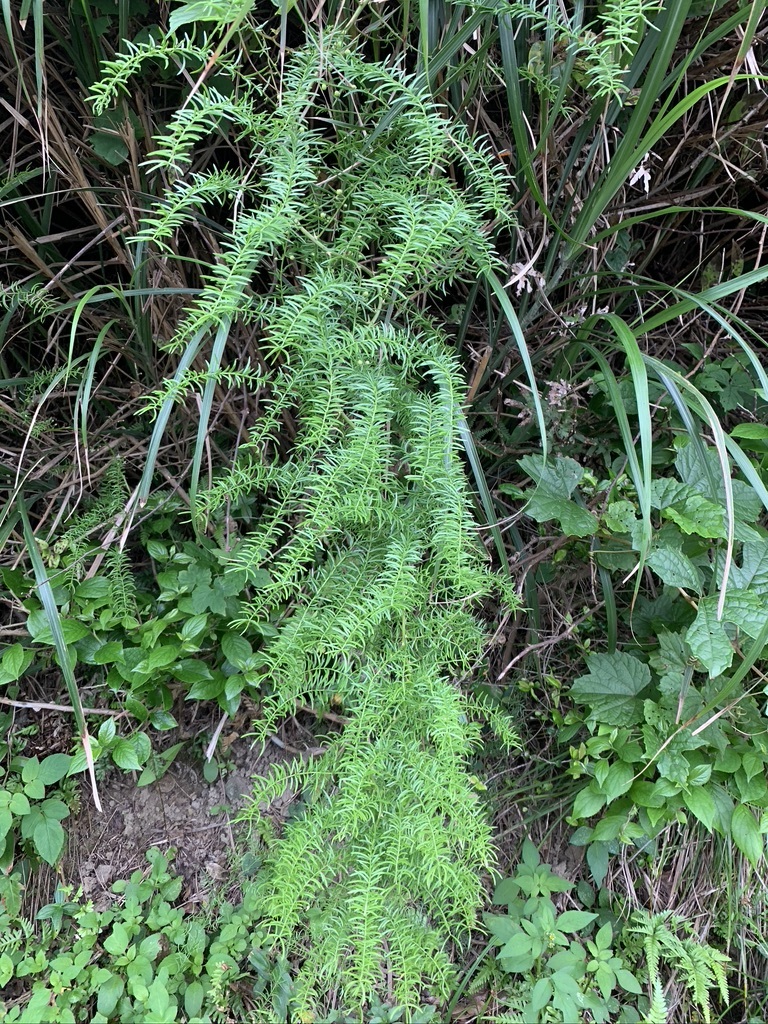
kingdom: Plantae
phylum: Tracheophyta
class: Liliopsida
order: Asparagales
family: Asparagaceae
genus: Asparagus
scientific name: Asparagus cochinchinensis
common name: Chinese asparagus
